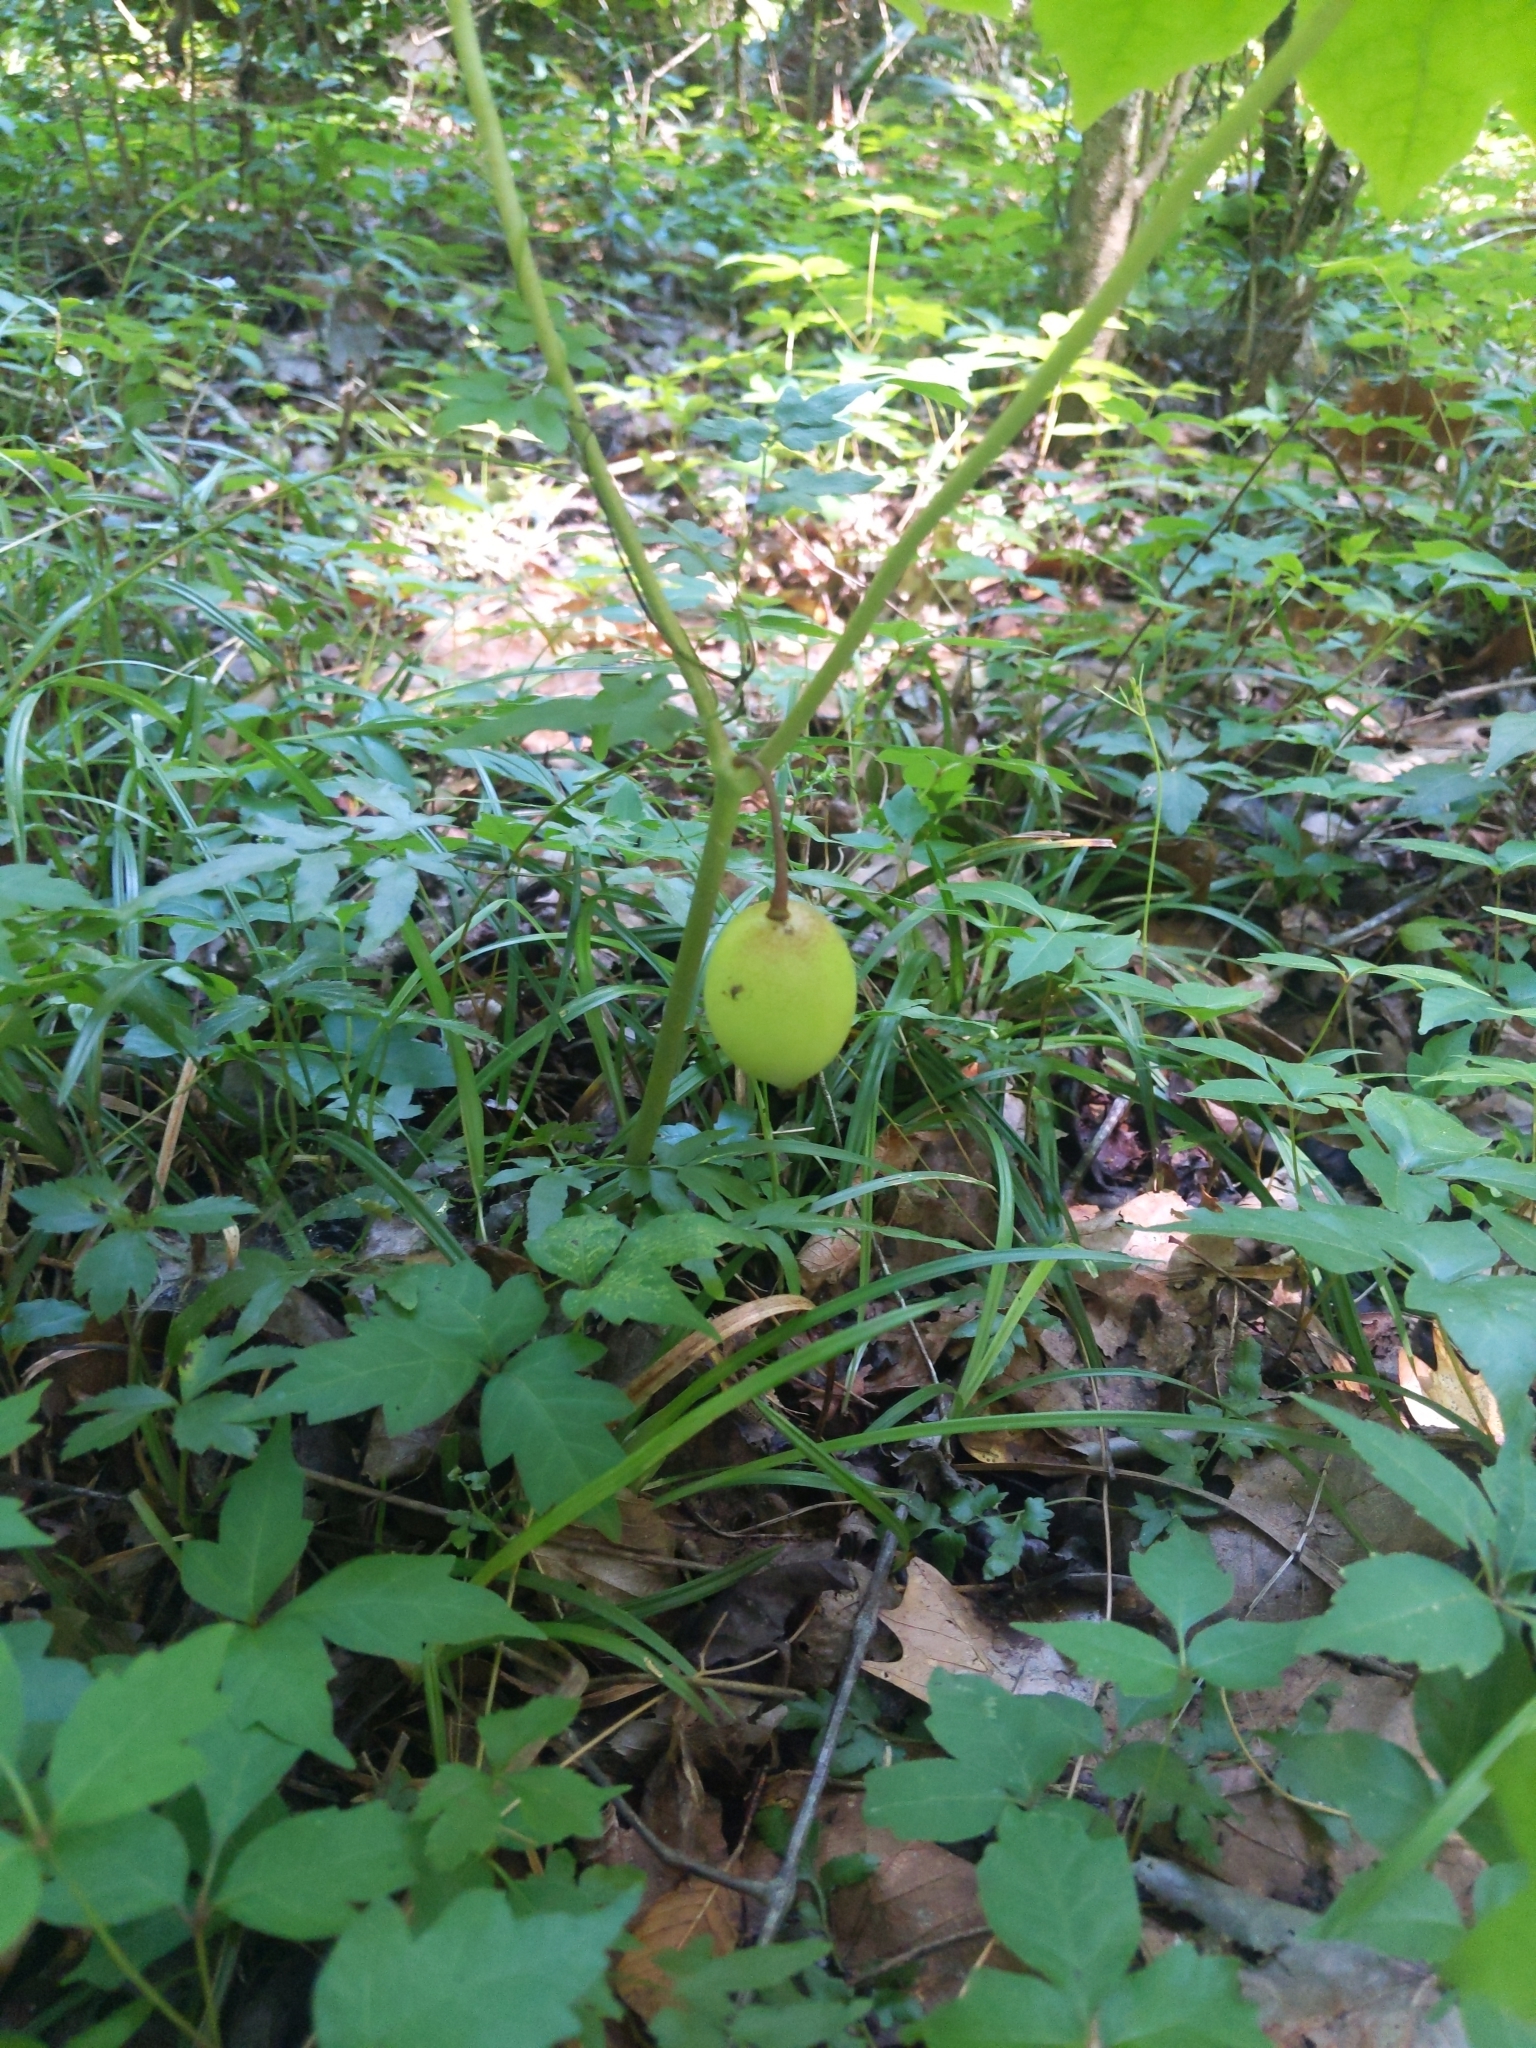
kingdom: Plantae
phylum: Tracheophyta
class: Magnoliopsida
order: Ranunculales
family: Berberidaceae
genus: Podophyllum
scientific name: Podophyllum peltatum
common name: Wild mandrake
